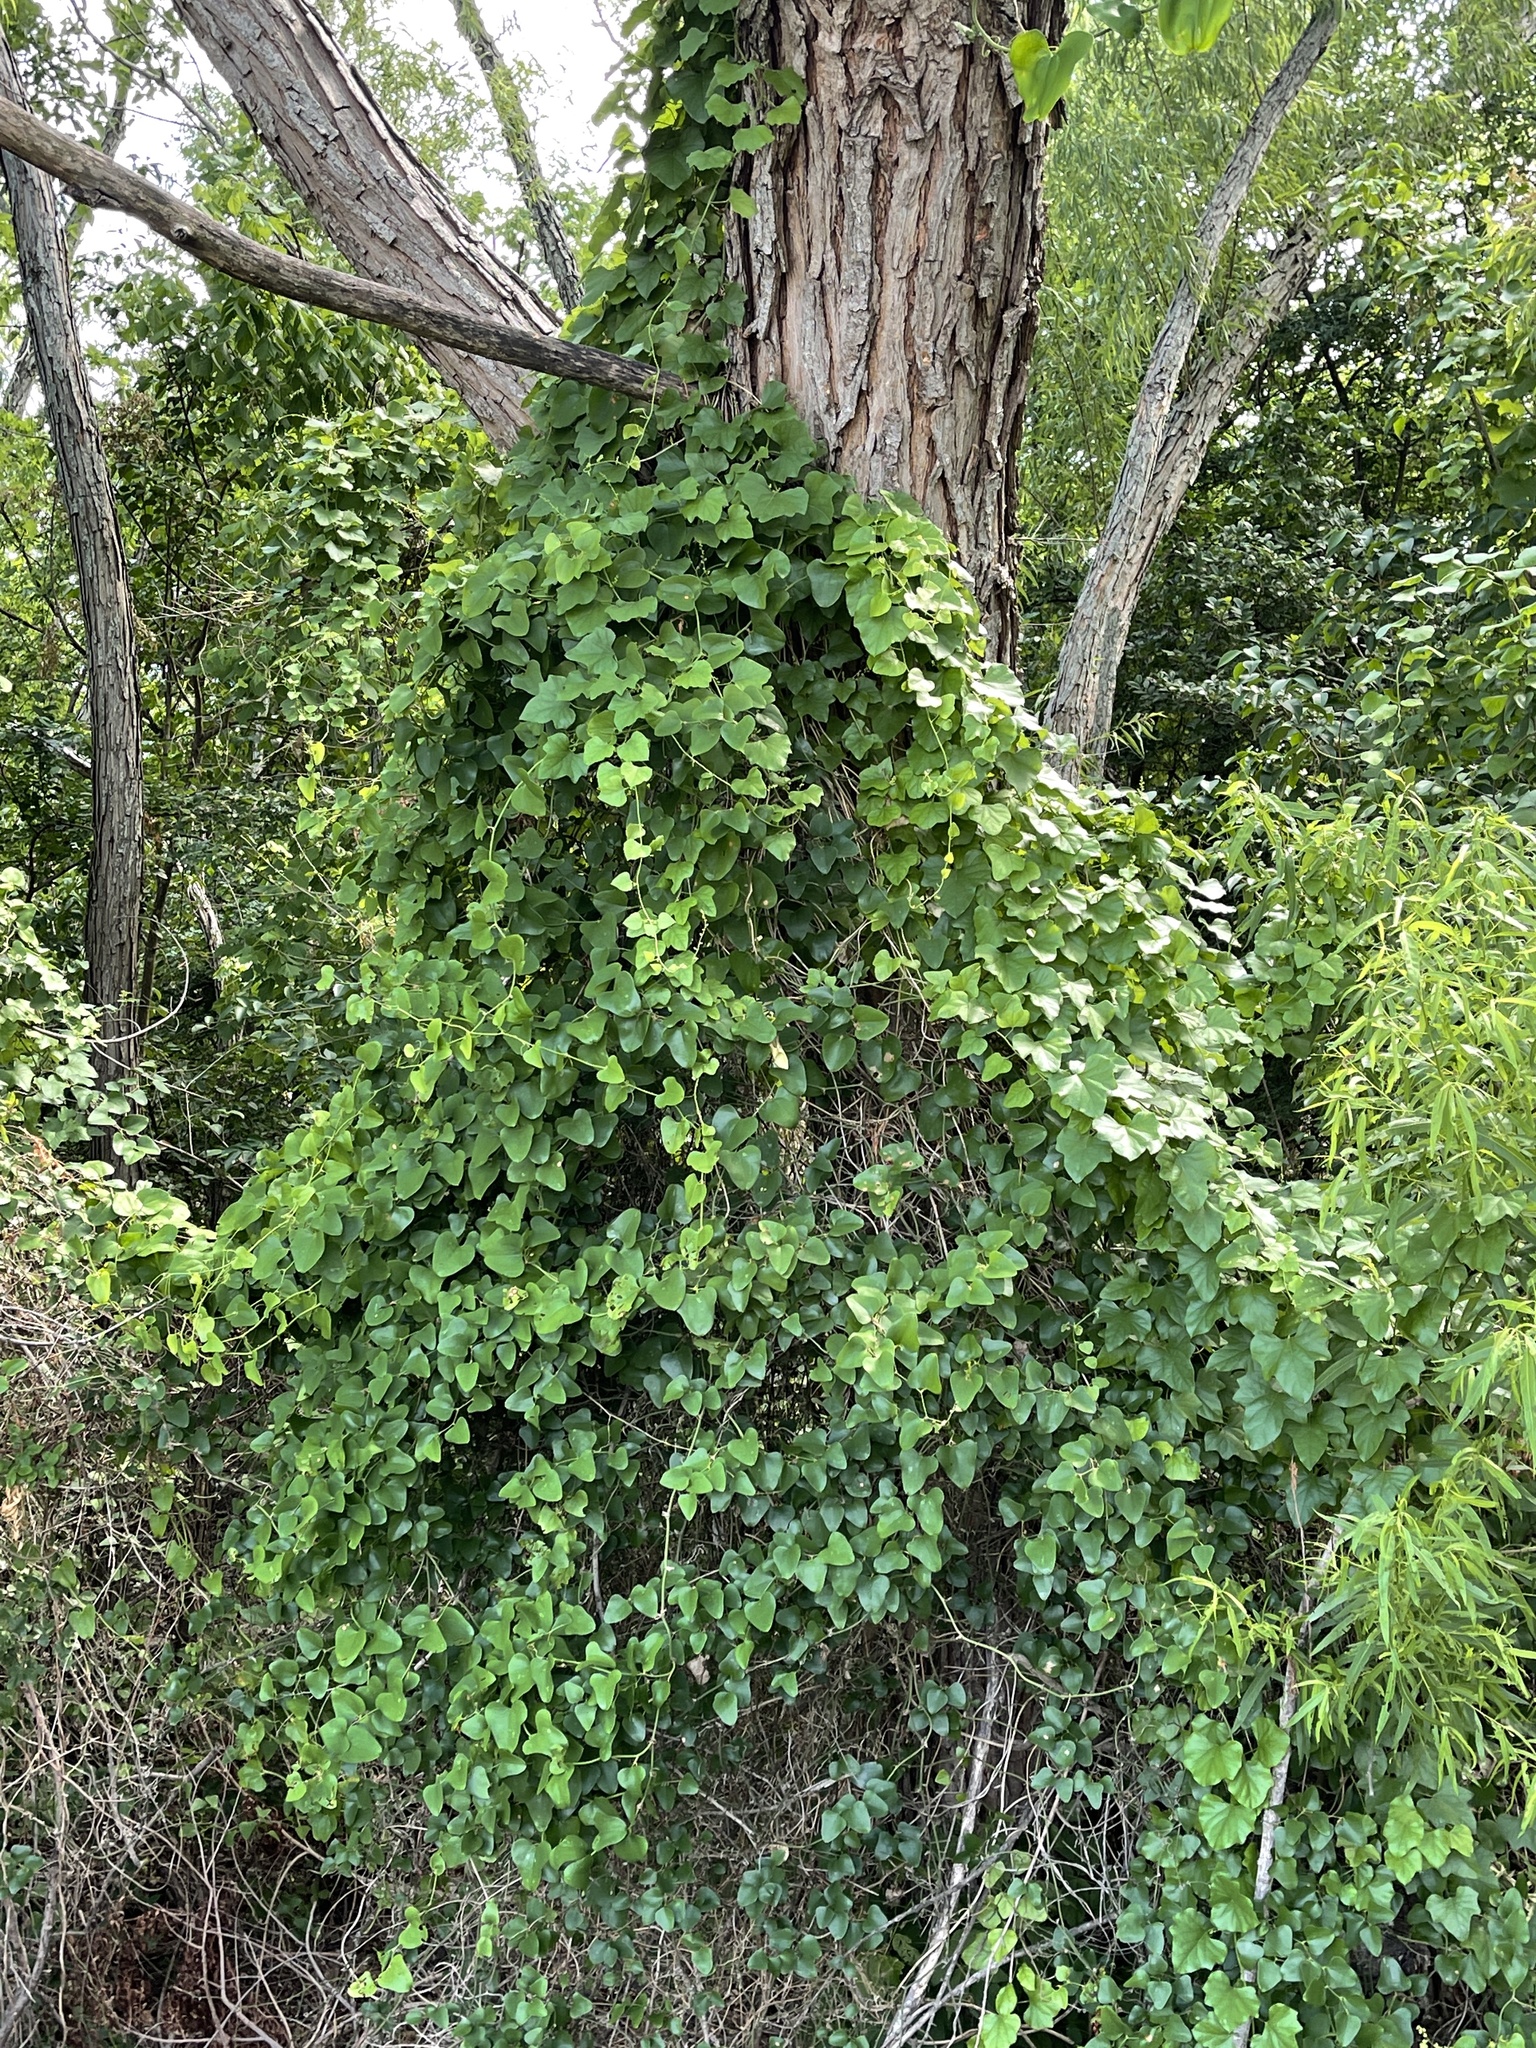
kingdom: Plantae
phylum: Tracheophyta
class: Magnoliopsida
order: Ranunculales
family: Menispermaceae
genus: Cocculus
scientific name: Cocculus carolinus
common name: Carolina moonseed
